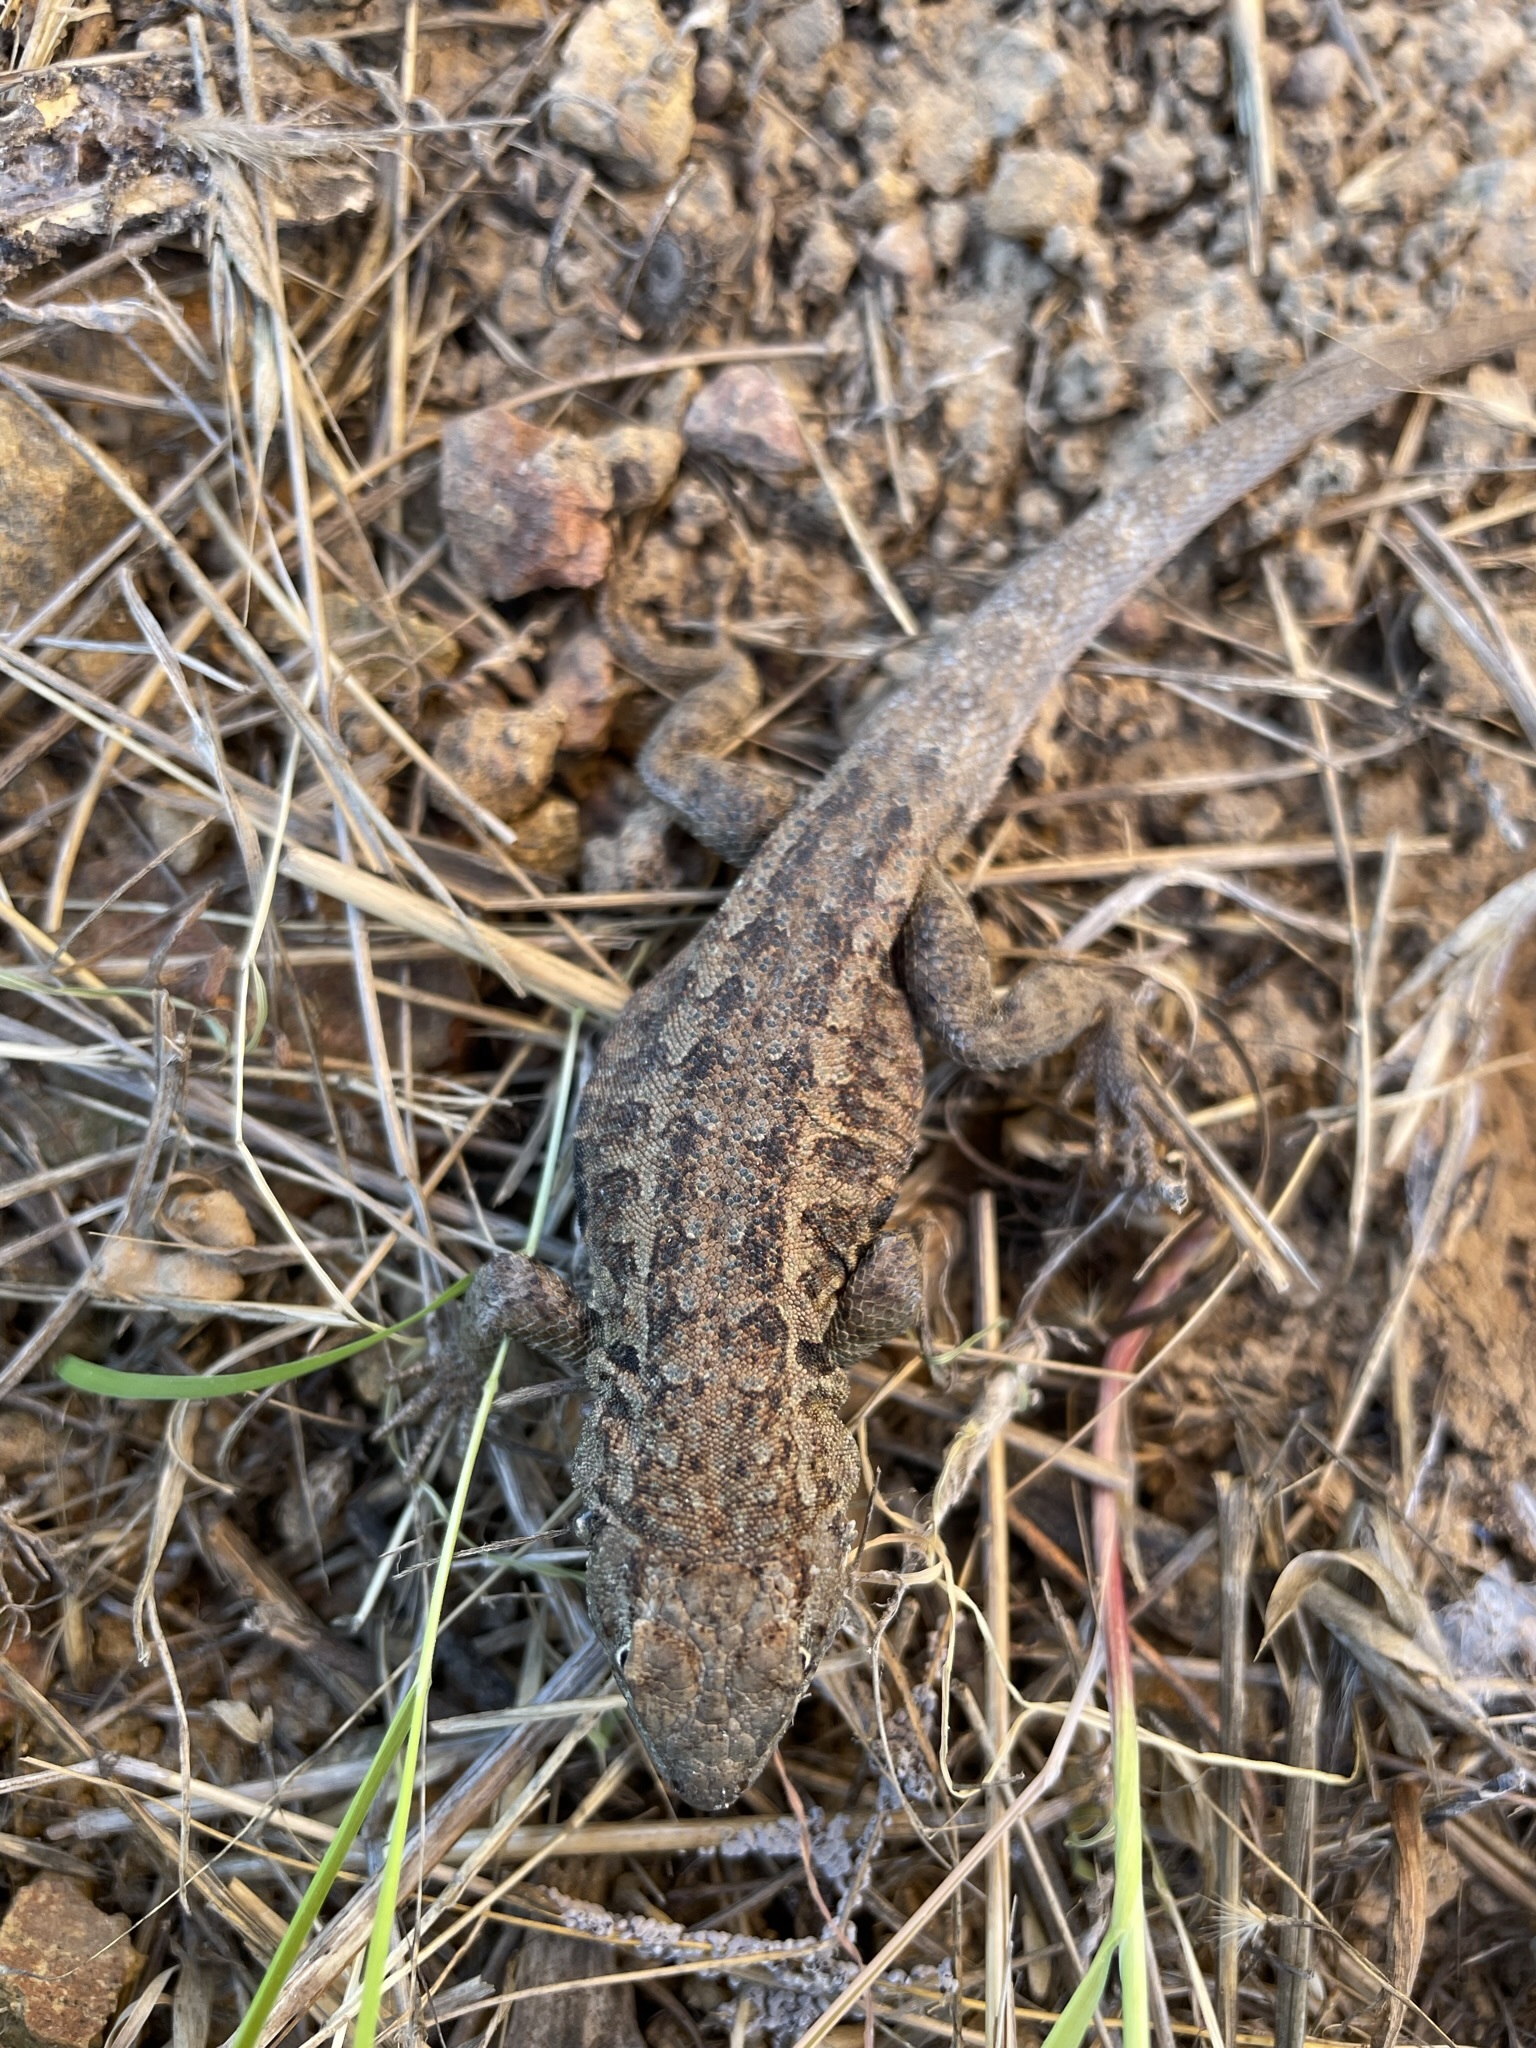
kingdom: Animalia
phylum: Chordata
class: Squamata
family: Phrynosomatidae
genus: Uta
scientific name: Uta stansburiana
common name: Side-blotched lizard
